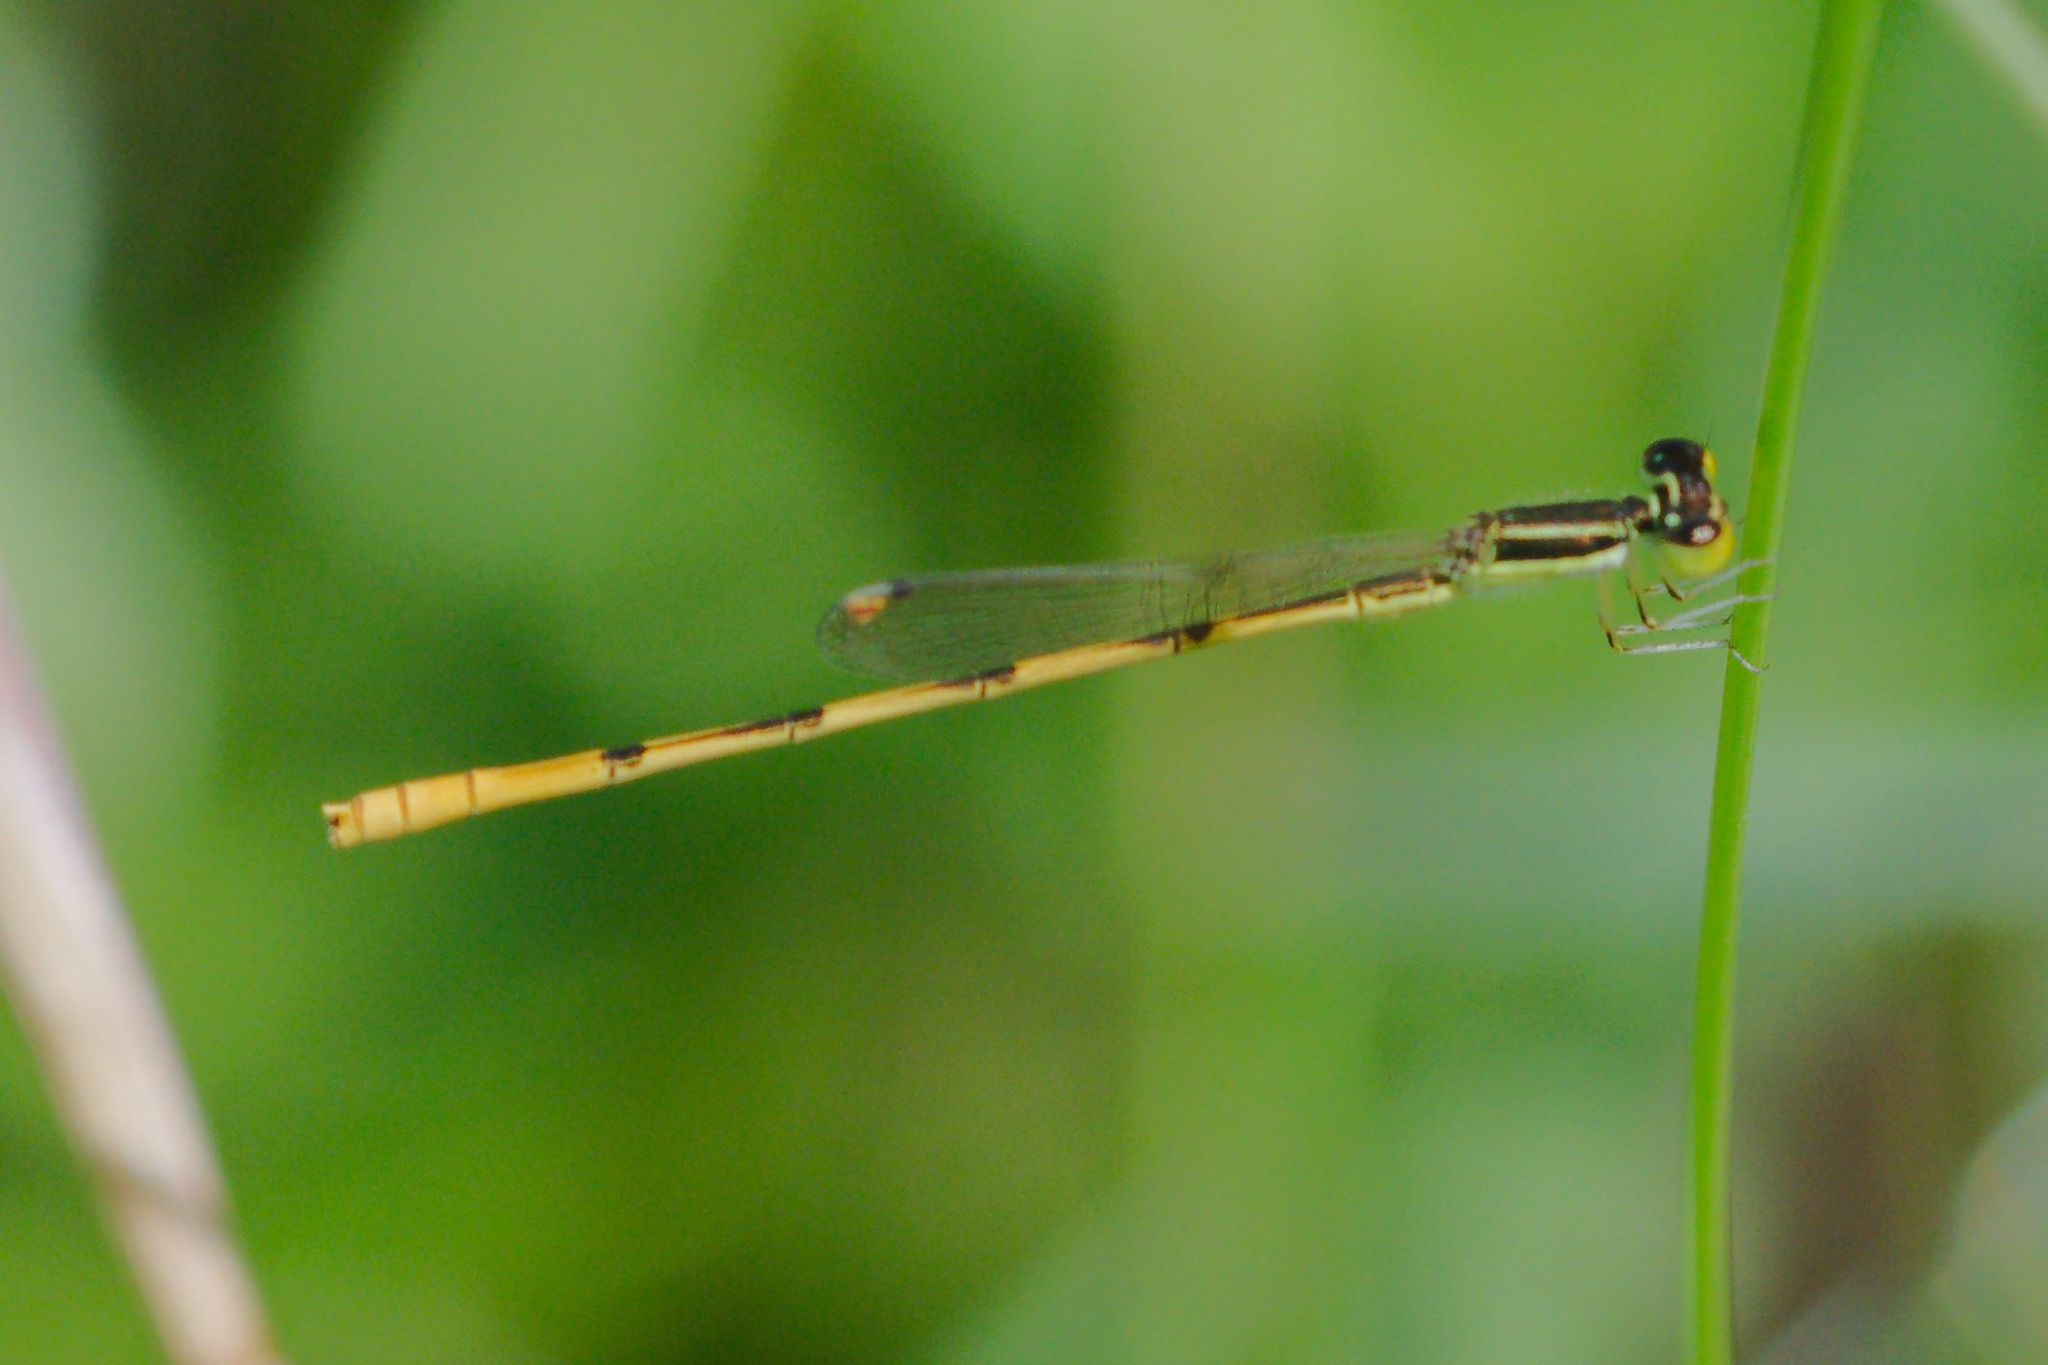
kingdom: Animalia
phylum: Arthropoda
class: Insecta
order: Odonata
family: Coenagrionidae
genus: Ischnura
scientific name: Ischnura hastata
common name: Citrine forktail
